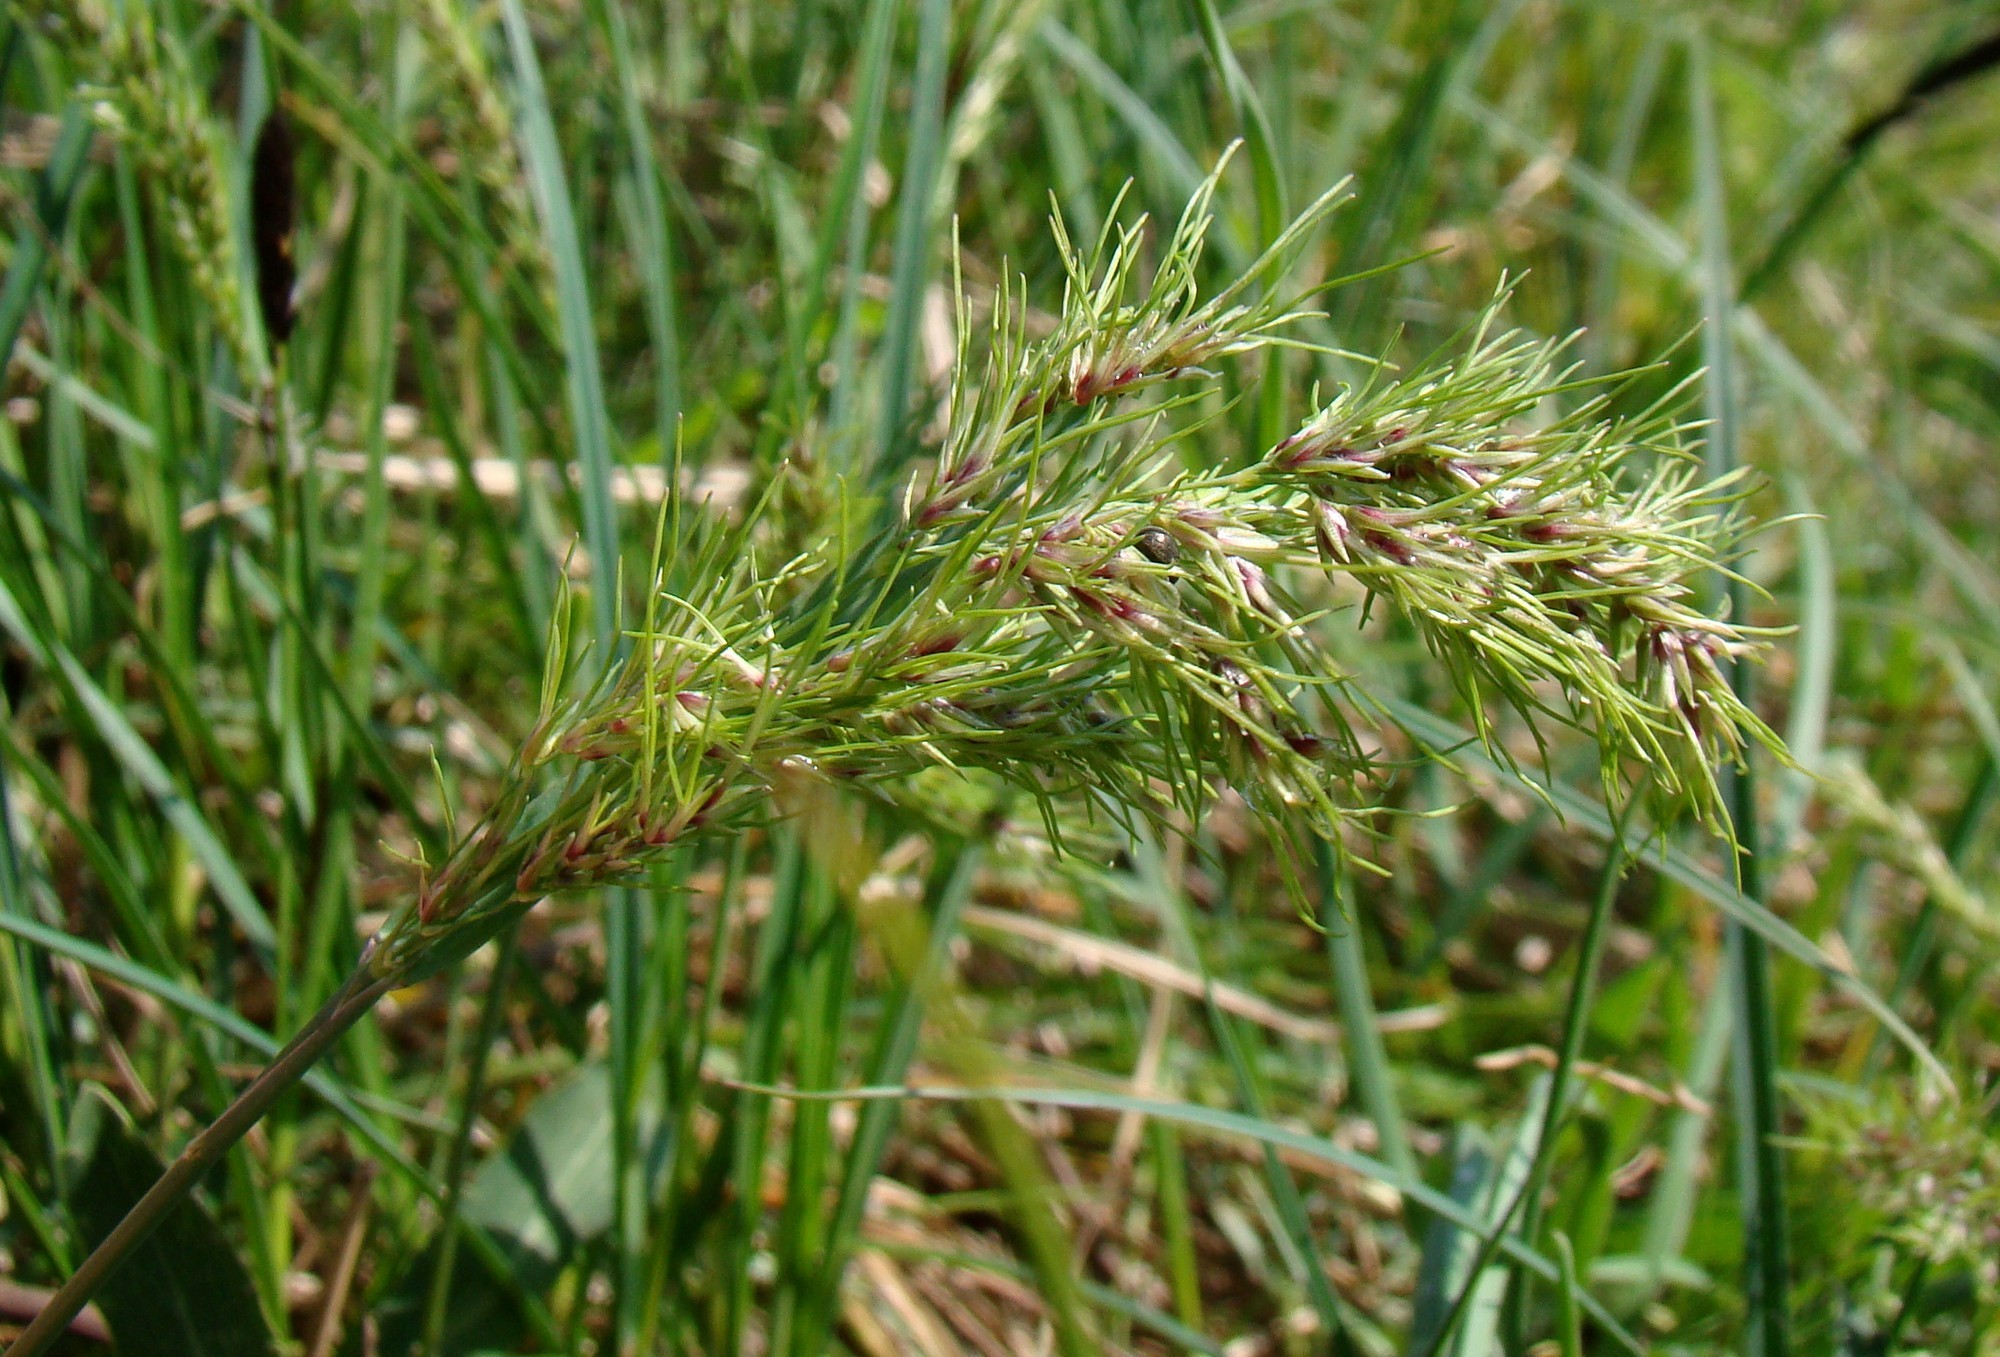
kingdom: Plantae
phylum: Tracheophyta
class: Liliopsida
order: Poales
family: Poaceae
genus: Poa
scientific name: Poa bulbosa
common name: Bulbous bluegrass
